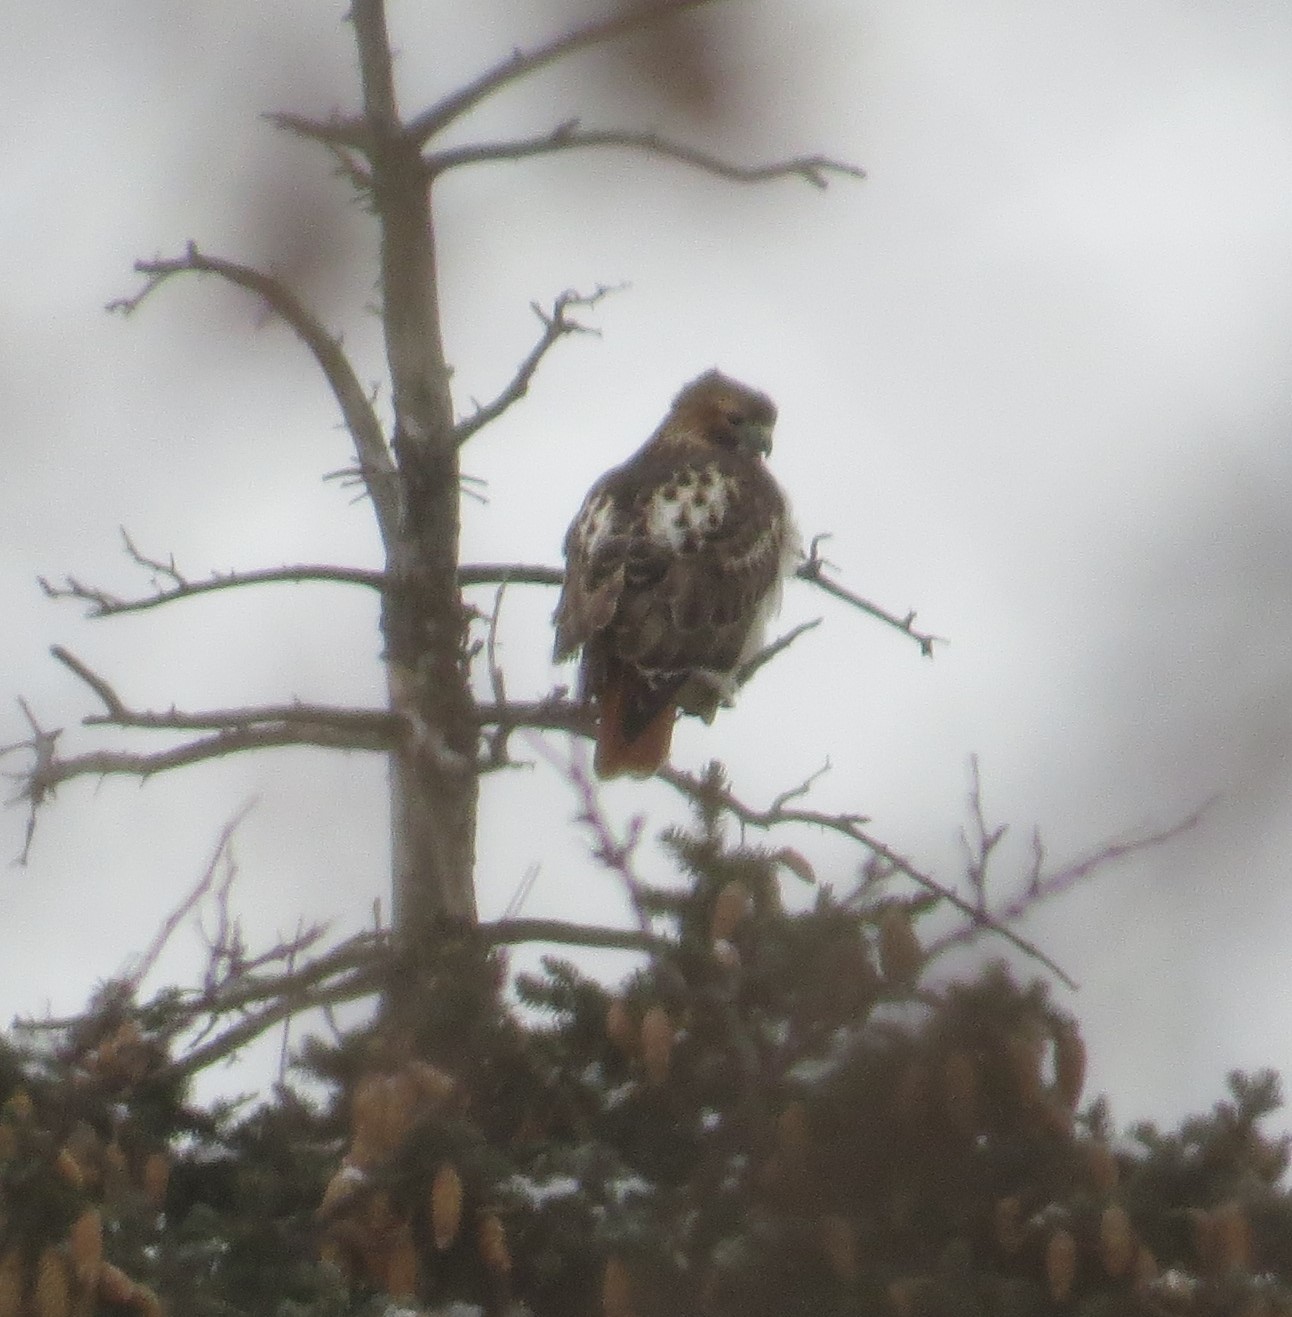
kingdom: Animalia
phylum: Chordata
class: Aves
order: Accipitriformes
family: Accipitridae
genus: Buteo
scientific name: Buteo jamaicensis
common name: Red-tailed hawk
